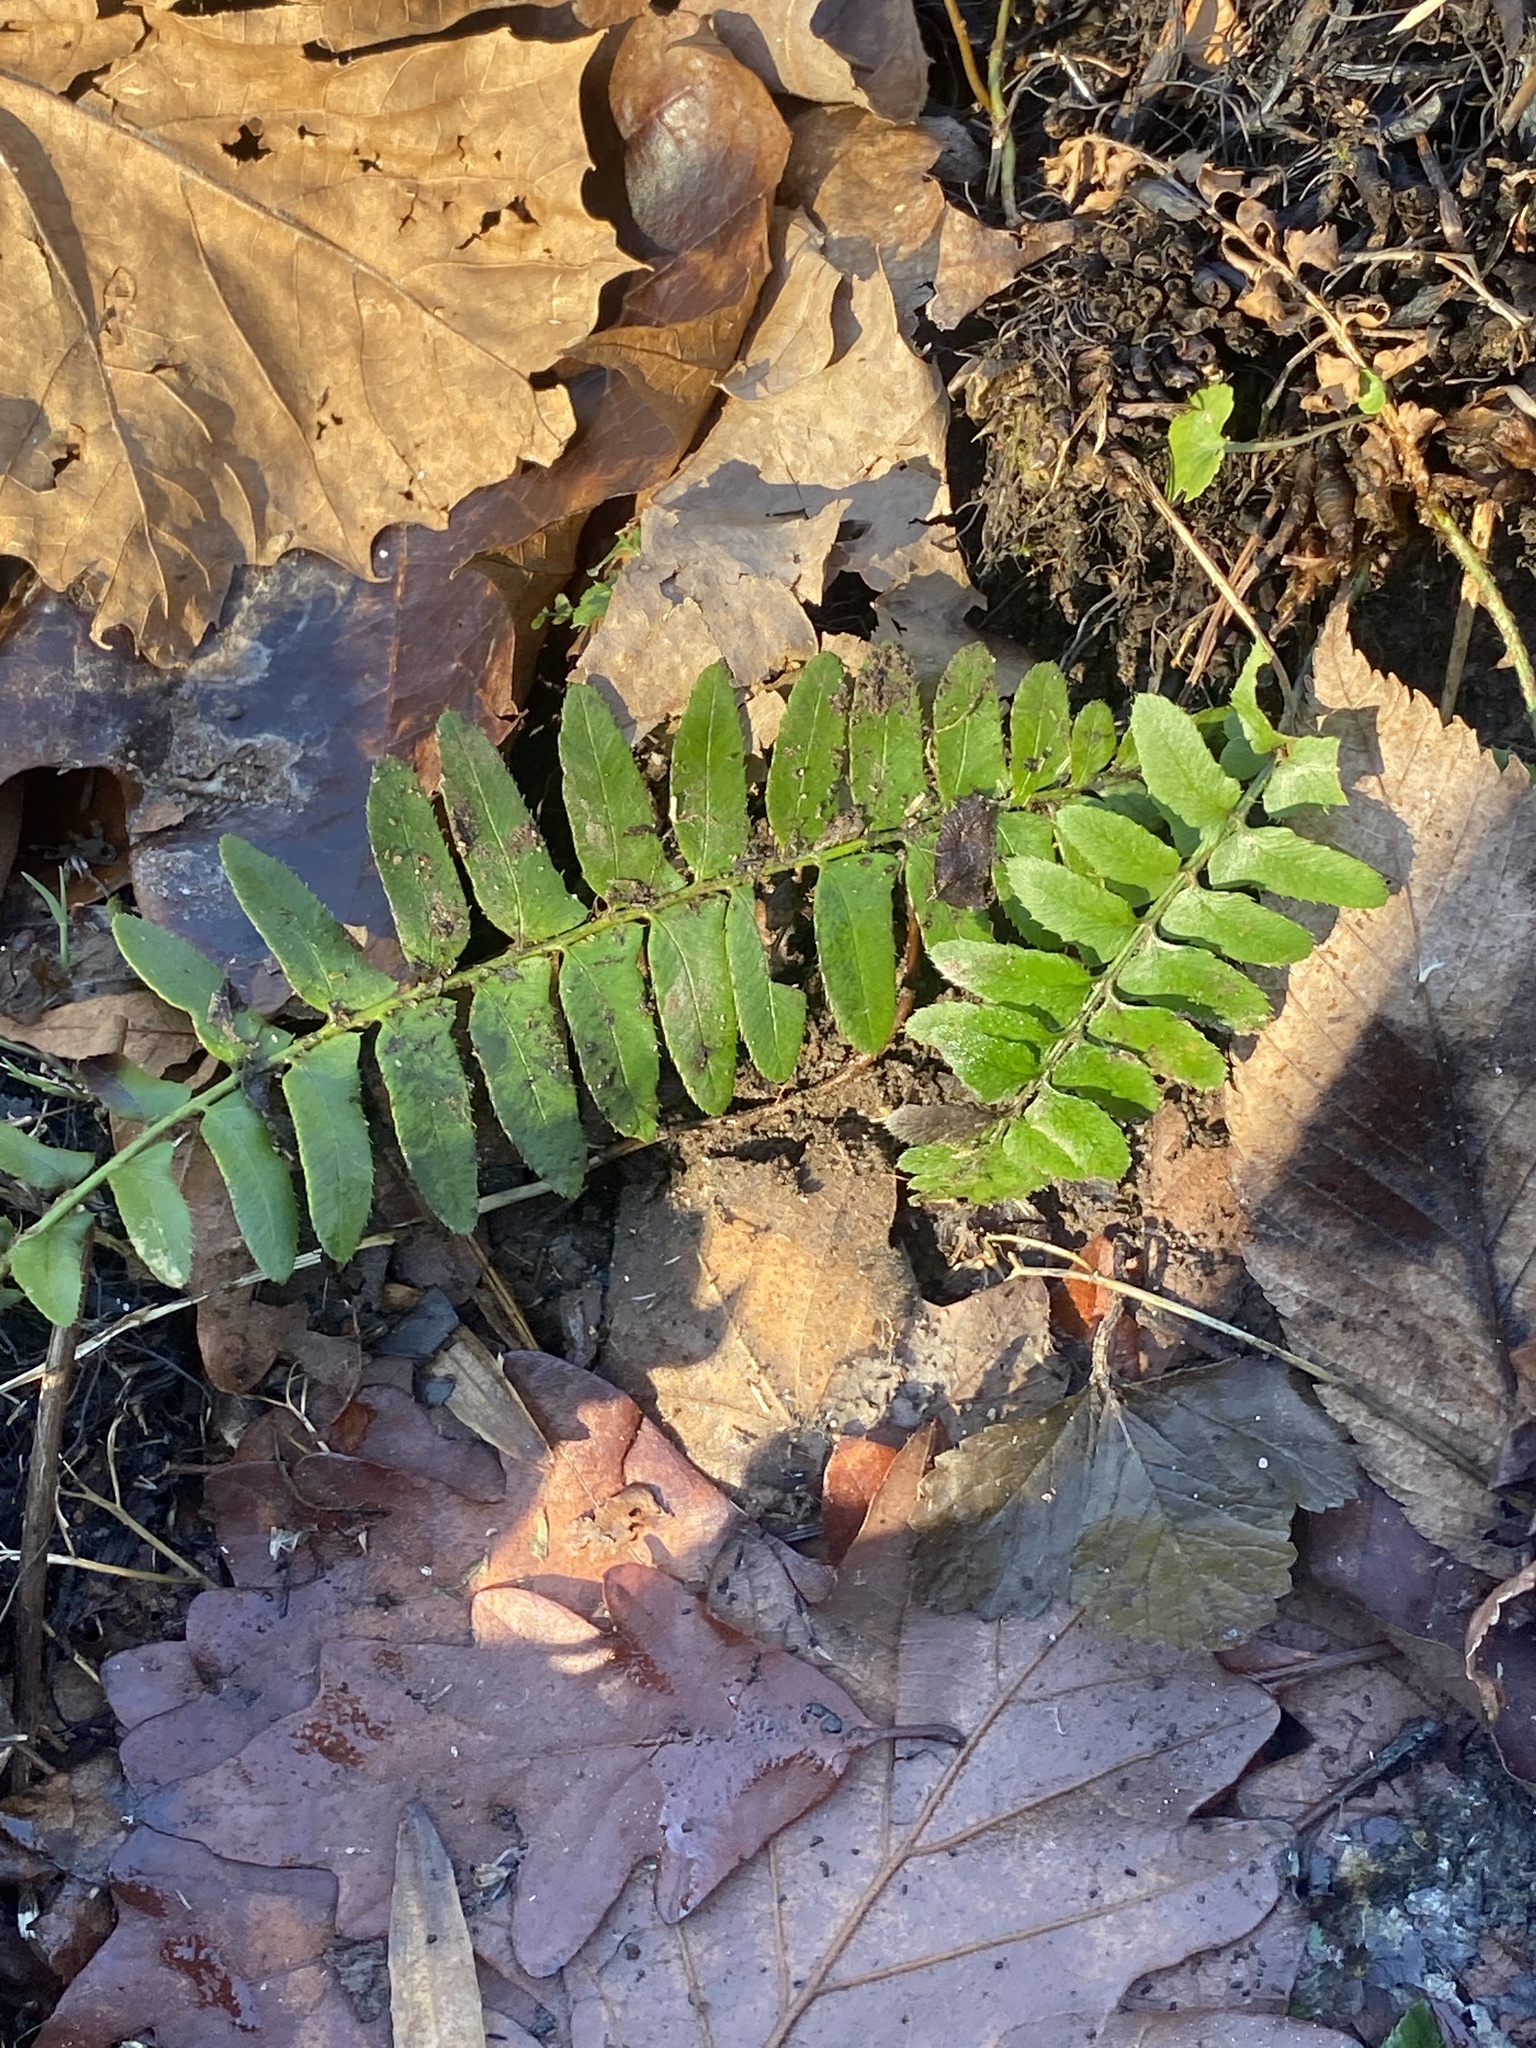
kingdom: Plantae
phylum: Tracheophyta
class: Polypodiopsida
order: Polypodiales
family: Dryopteridaceae
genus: Polystichum
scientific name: Polystichum acrostichoides
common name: Christmas fern
